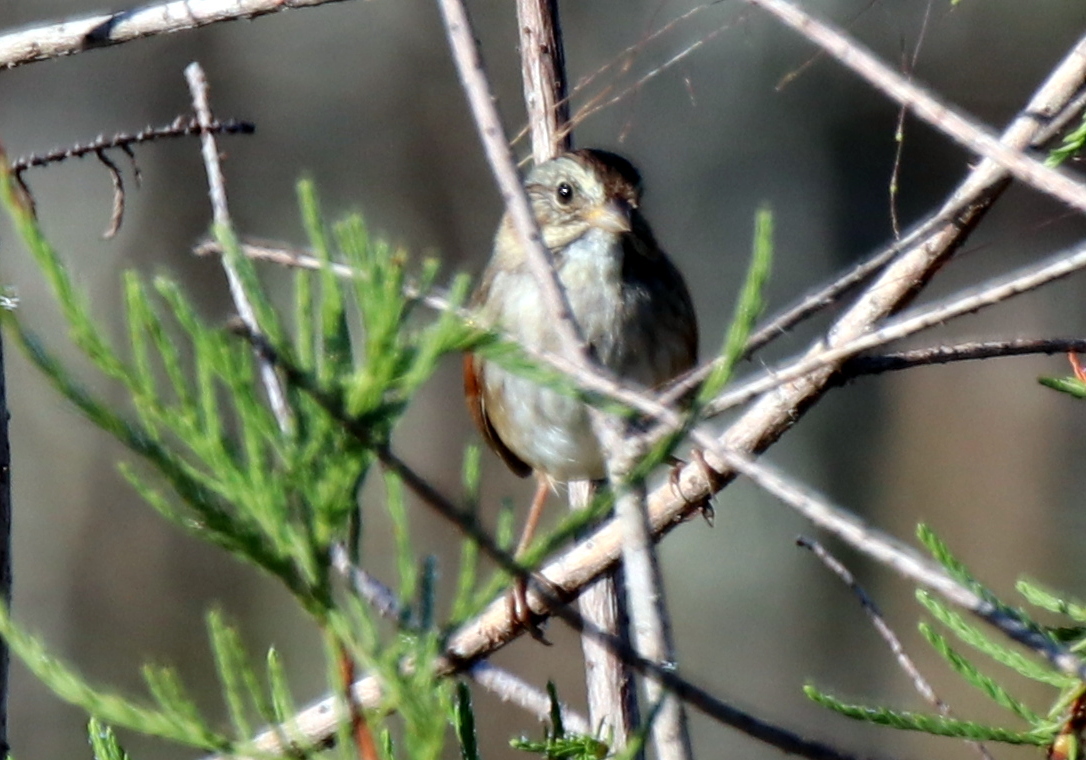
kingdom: Animalia
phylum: Chordata
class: Aves
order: Passeriformes
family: Passerellidae
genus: Melospiza
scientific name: Melospiza georgiana
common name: Swamp sparrow
